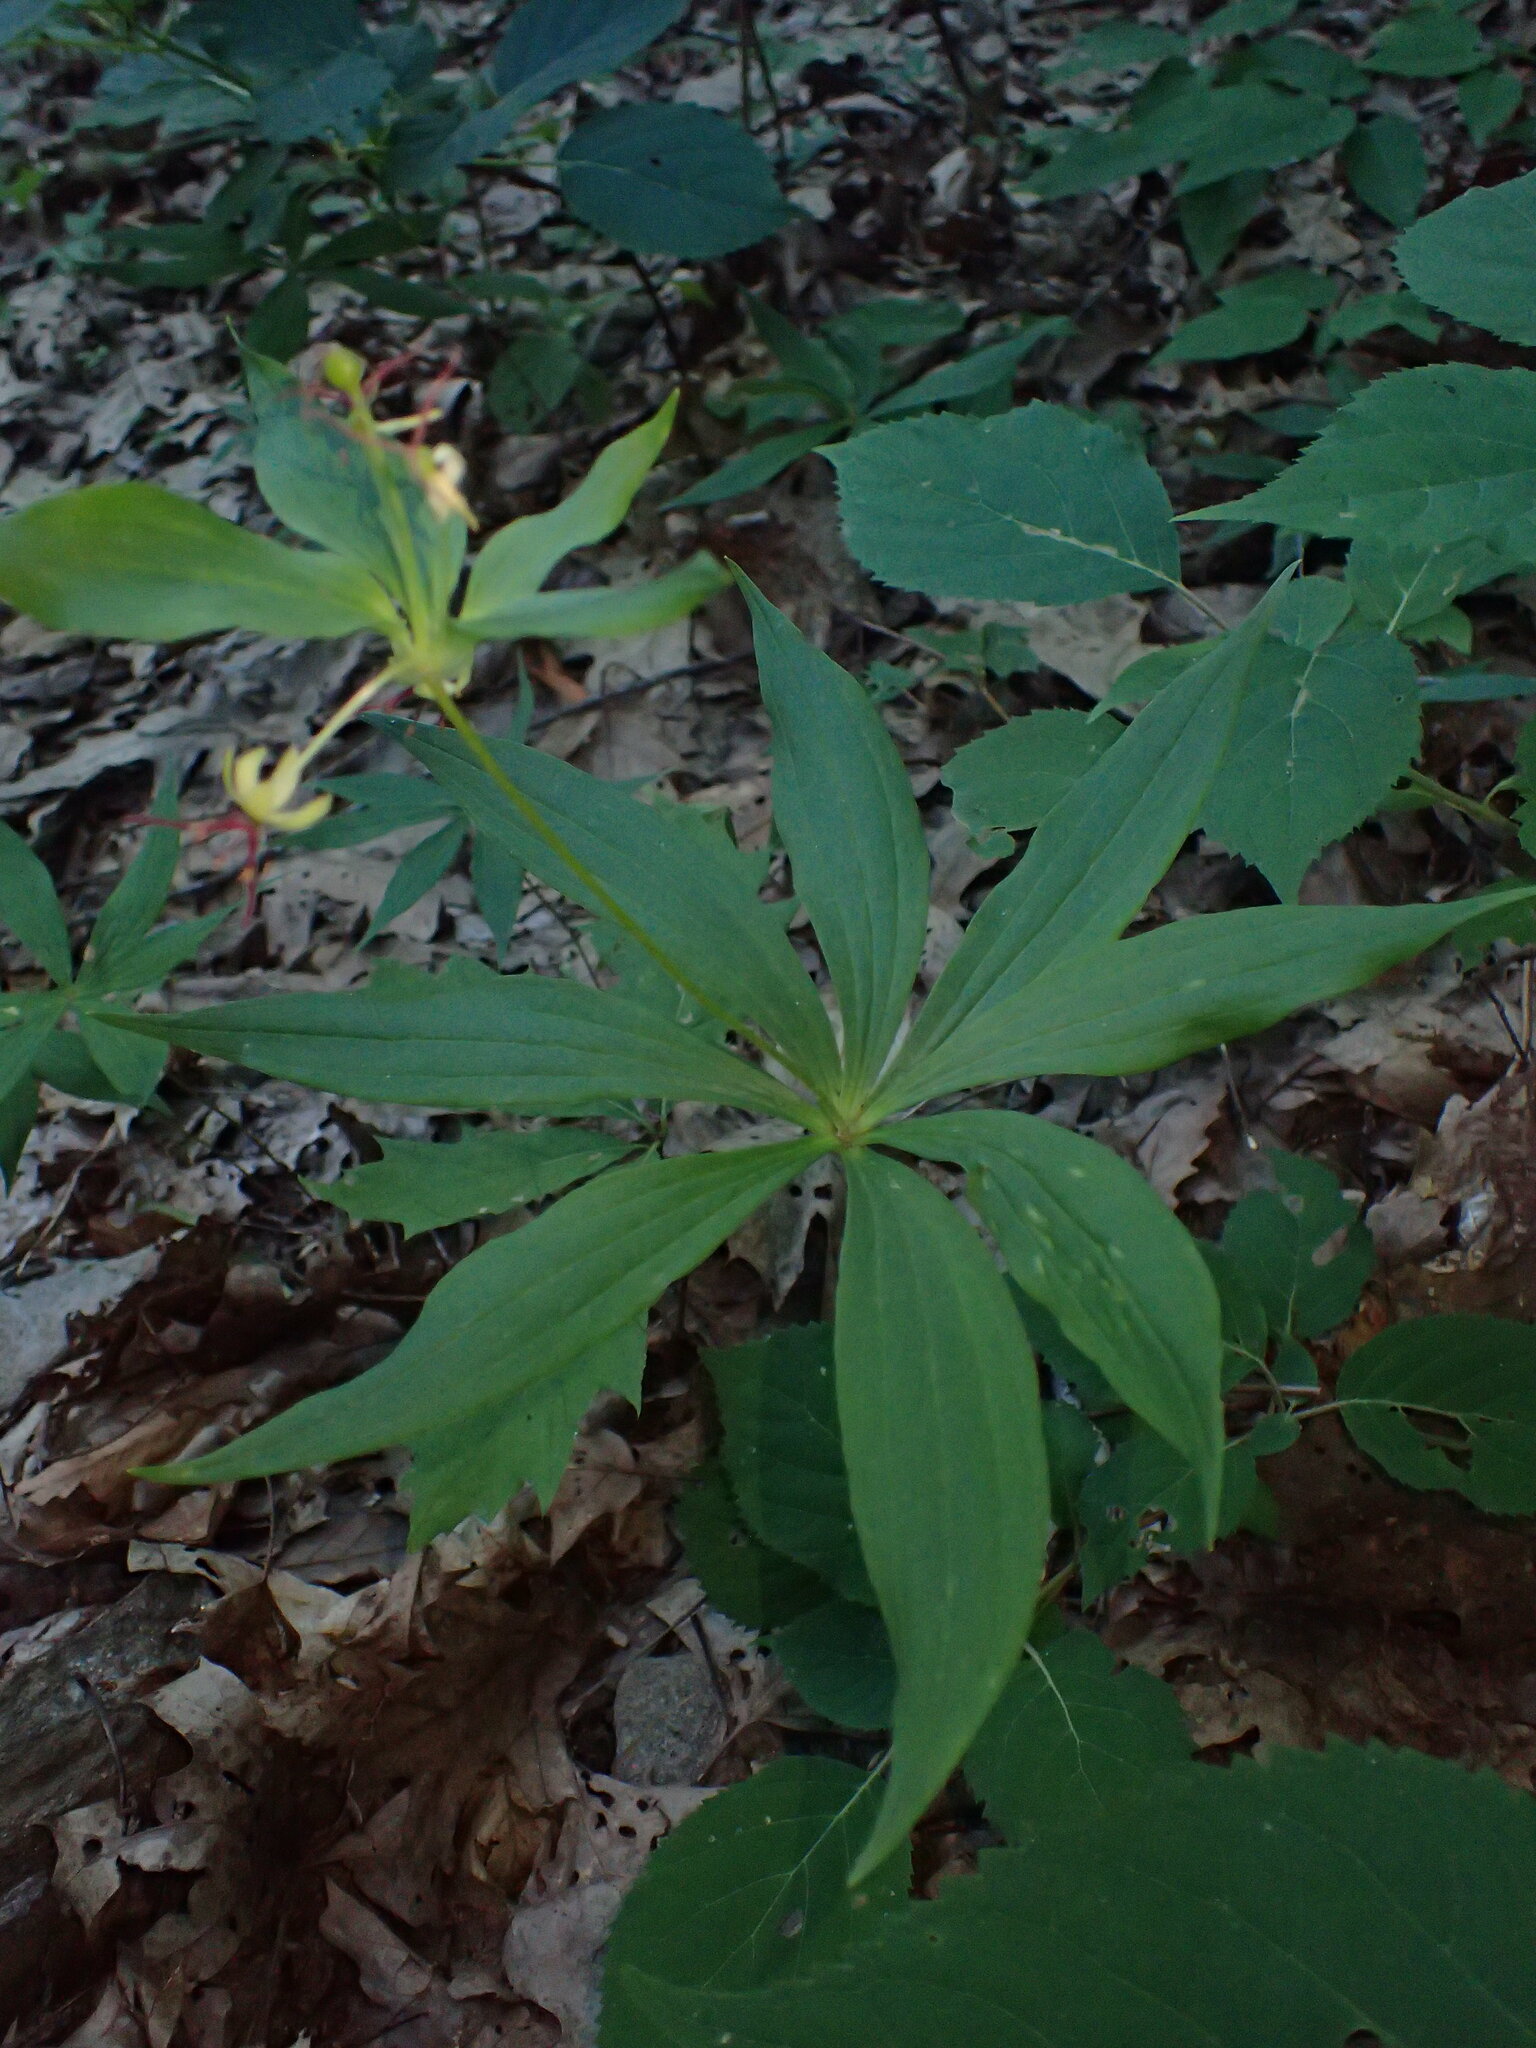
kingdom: Plantae
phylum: Tracheophyta
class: Liliopsida
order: Liliales
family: Liliaceae
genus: Medeola
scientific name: Medeola virginiana
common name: Indian cucumber-root
